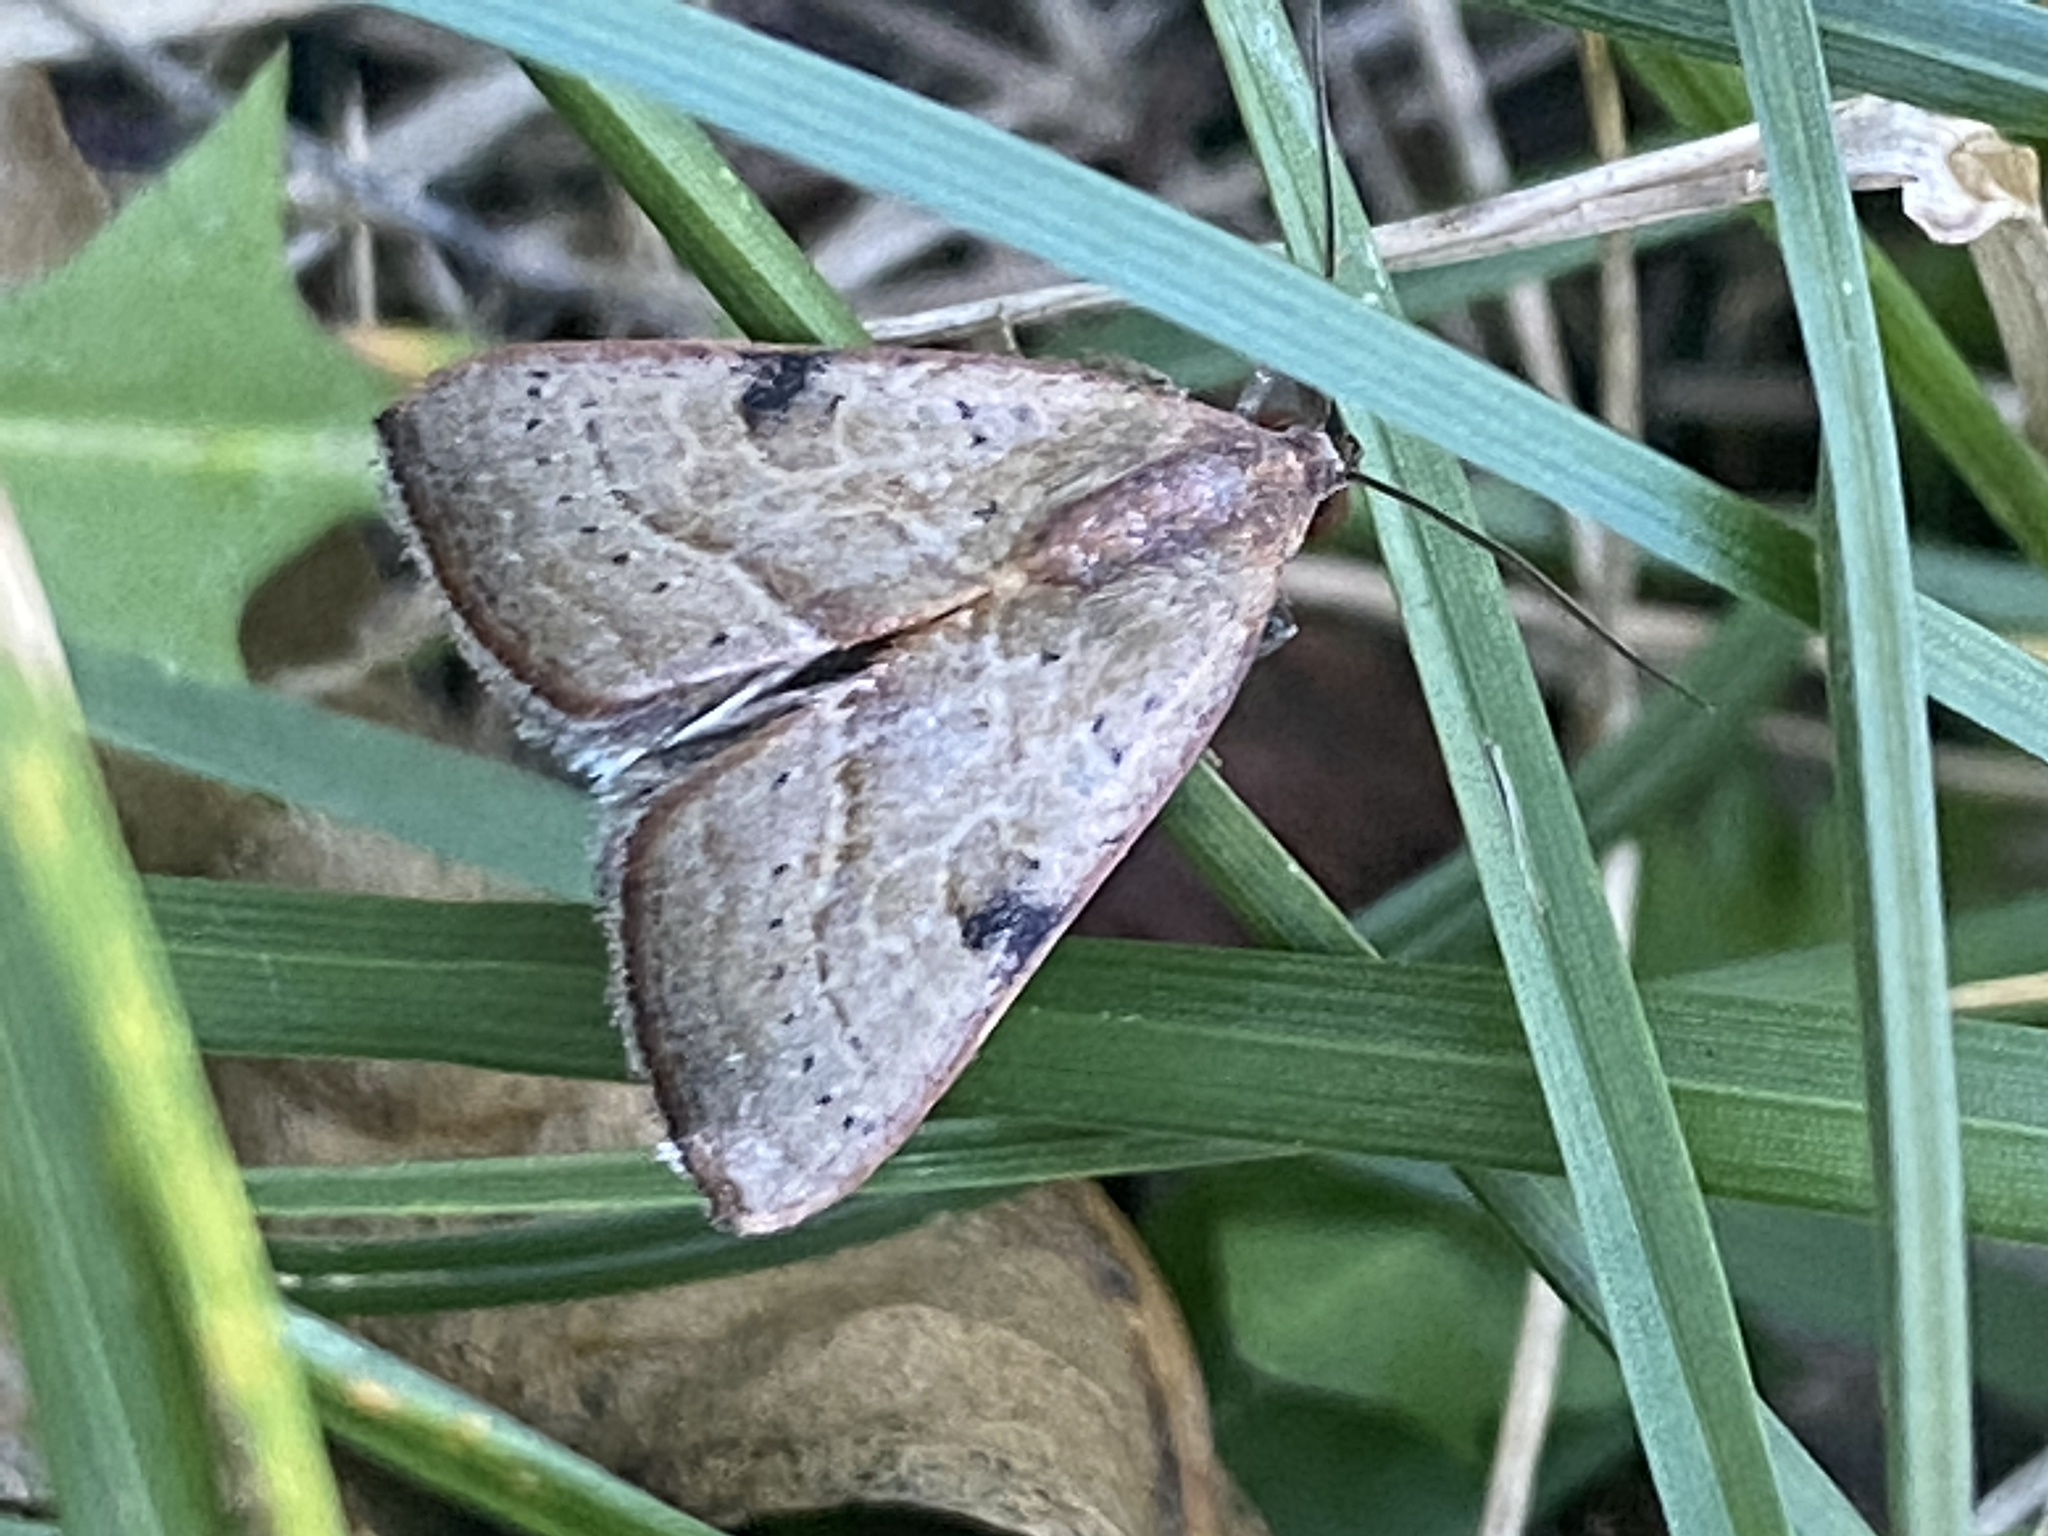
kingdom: Animalia
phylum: Arthropoda
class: Insecta
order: Lepidoptera
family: Noctuidae
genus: Galgula
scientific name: Galgula partita
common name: Wedgeling
